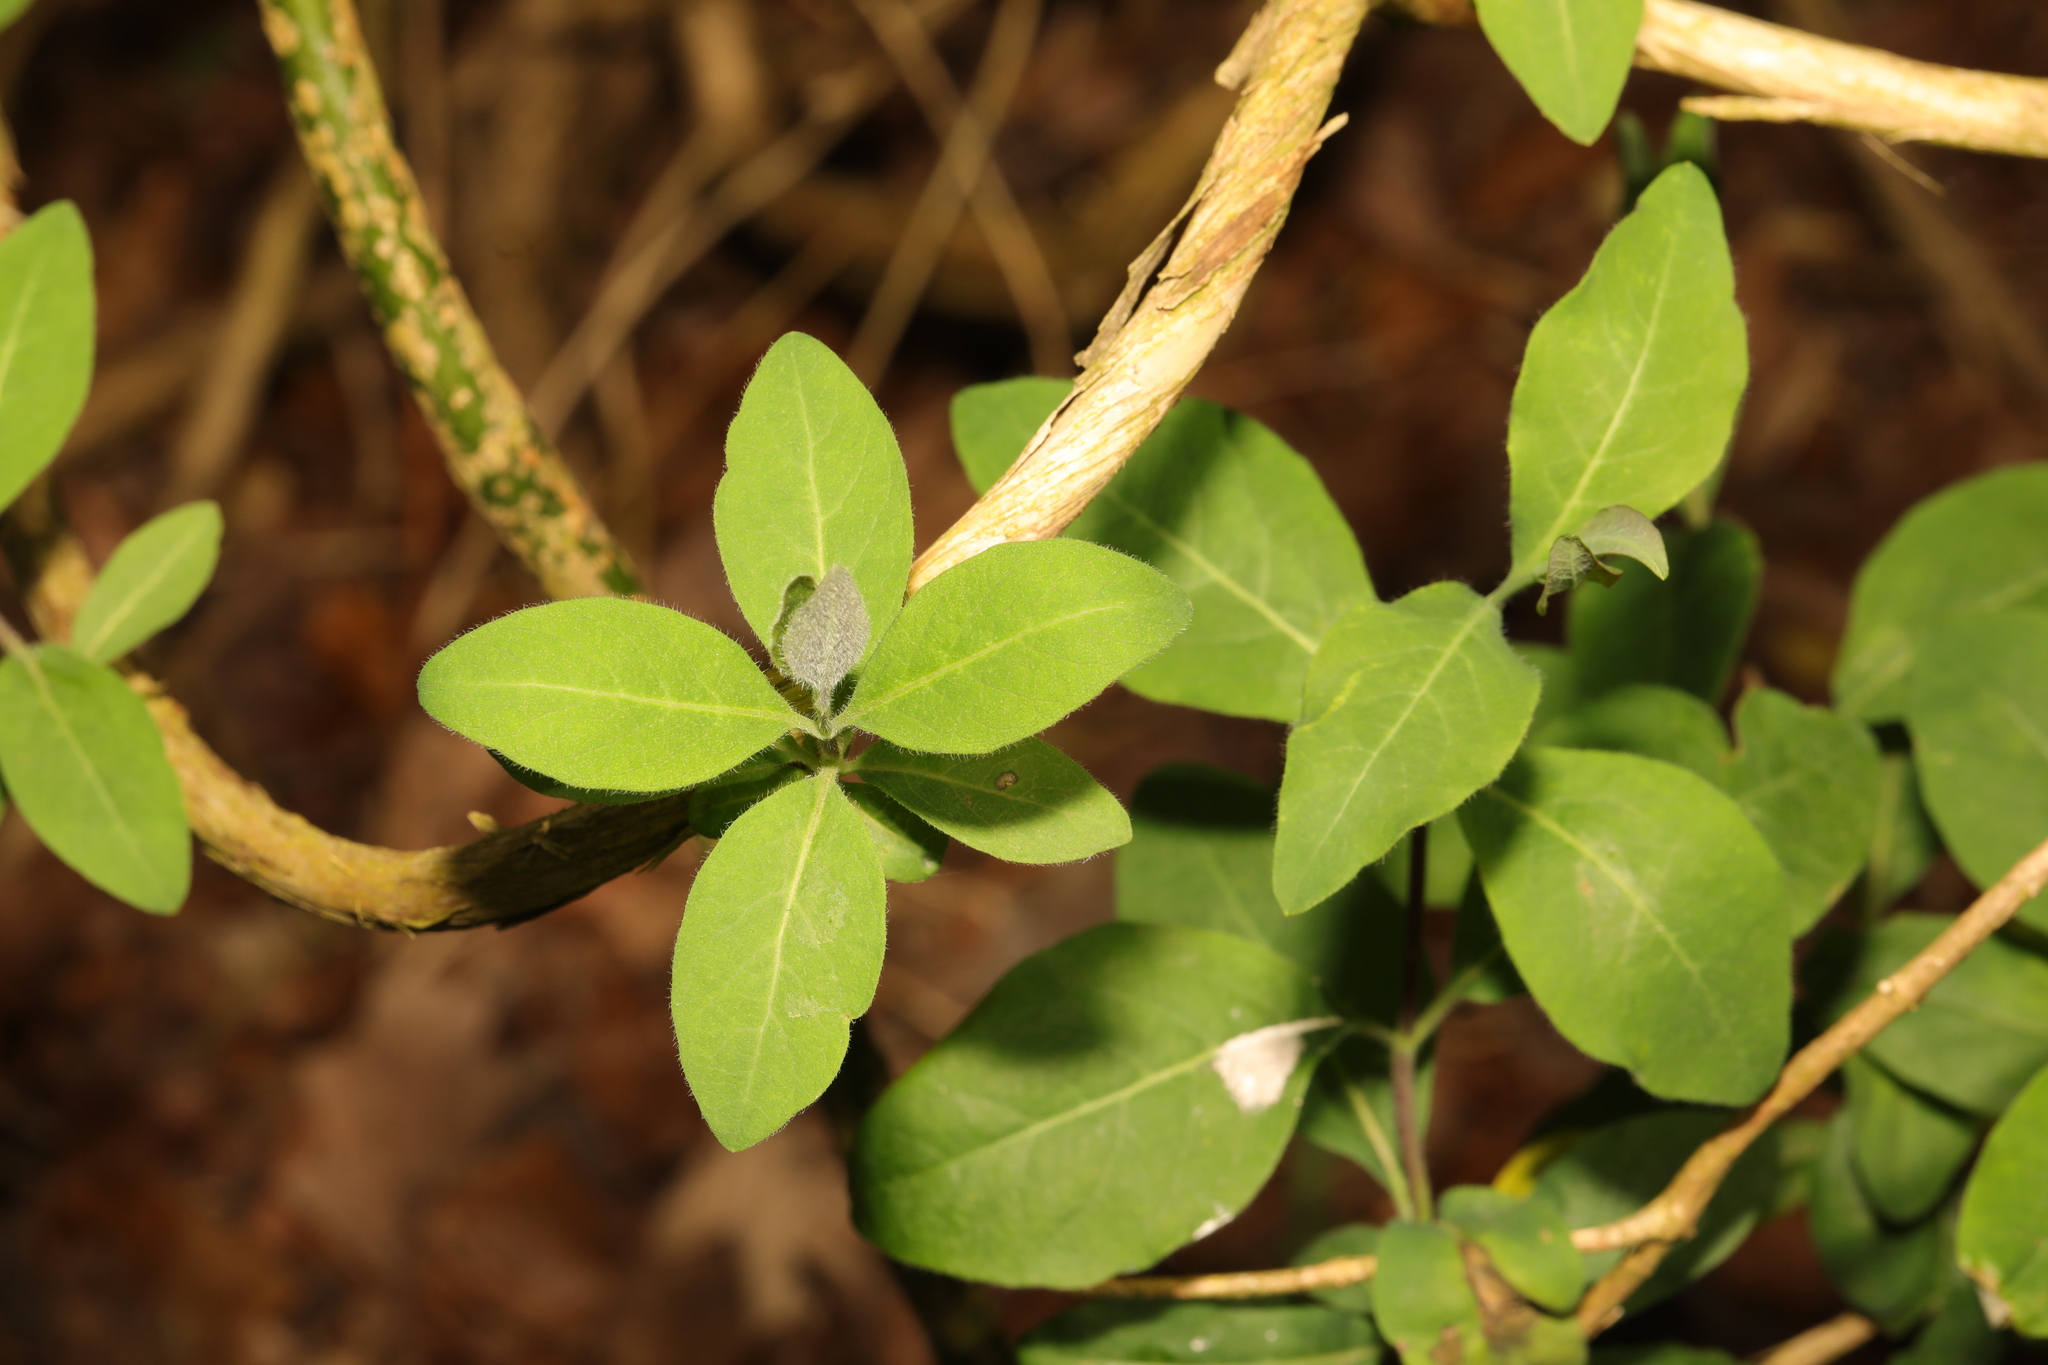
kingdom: Plantae
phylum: Tracheophyta
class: Magnoliopsida
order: Dipsacales
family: Caprifoliaceae
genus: Lonicera
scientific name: Lonicera periclymenum
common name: European honeysuckle
